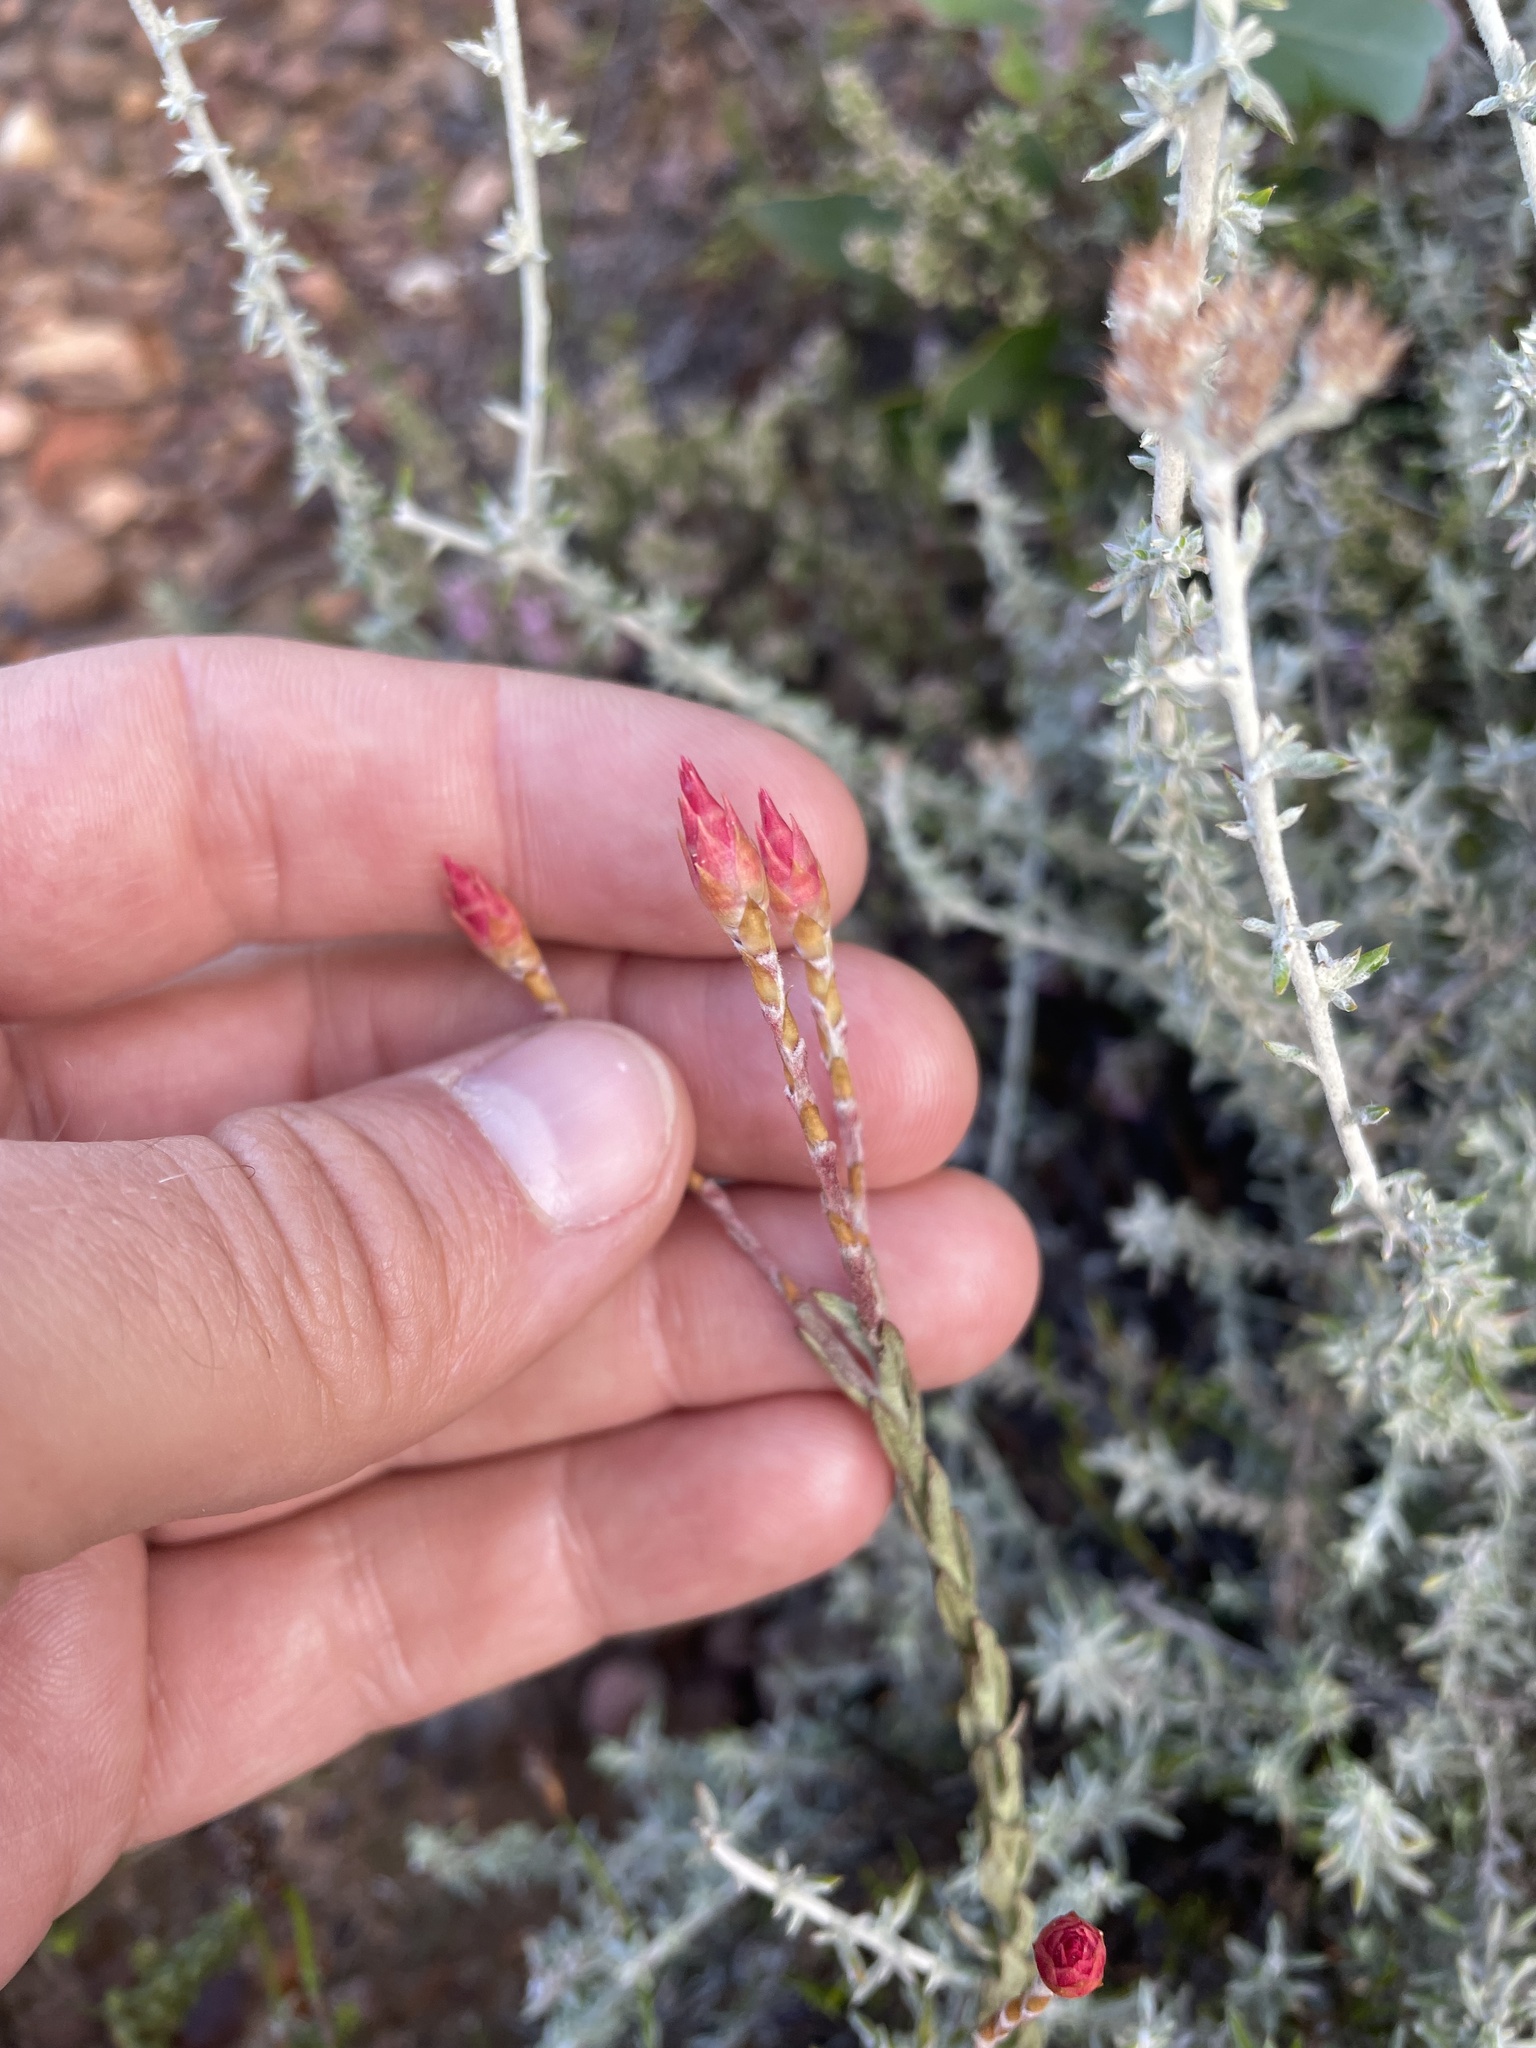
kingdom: Plantae
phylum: Tracheophyta
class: Magnoliopsida
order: Asterales
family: Asteraceae
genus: Syncarpha
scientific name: Syncarpha canescens
